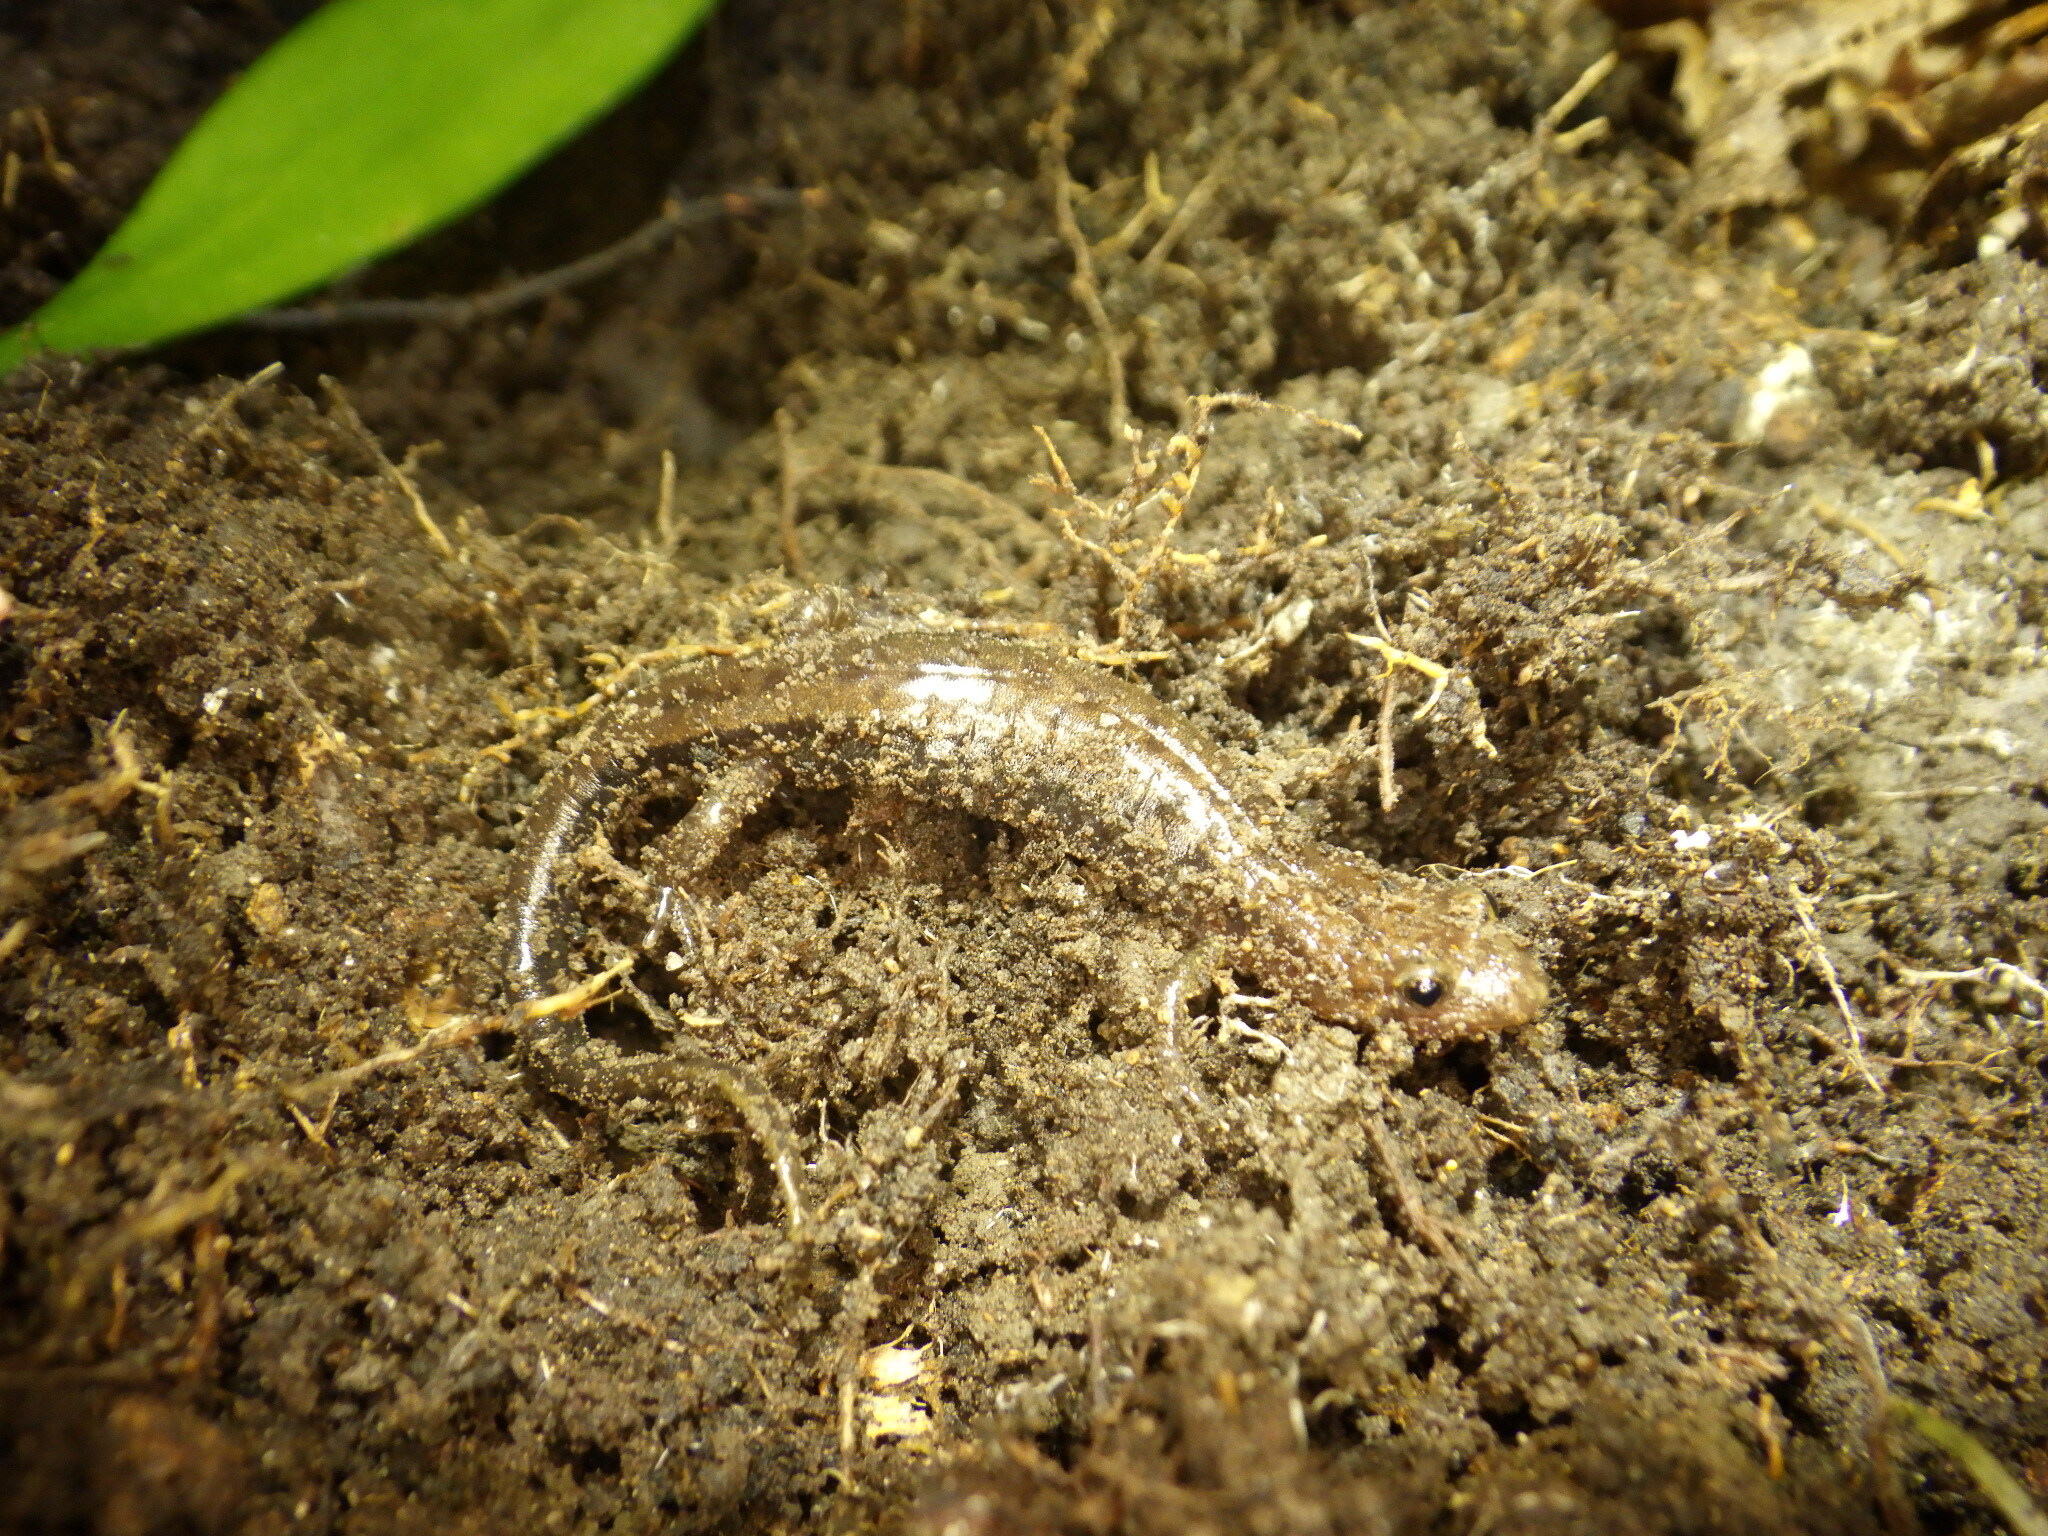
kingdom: Animalia
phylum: Chordata
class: Amphibia
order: Caudata
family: Plethodontidae
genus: Desmognathus
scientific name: Desmognathus ochrophaeus
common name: Allegheny mountain dusky salamander
